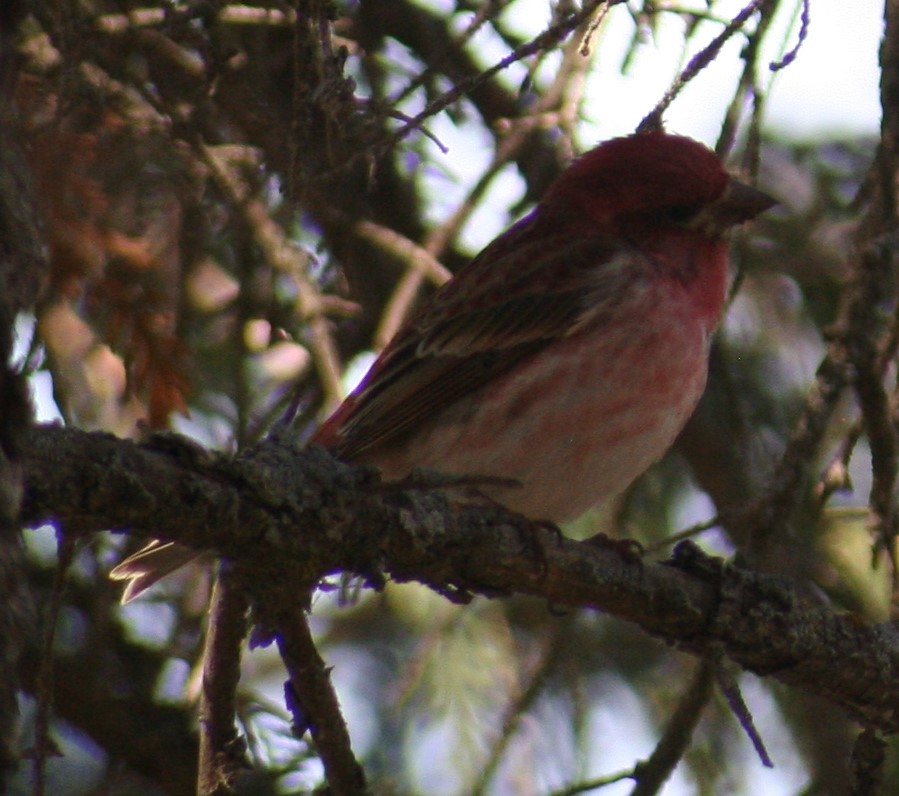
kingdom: Animalia
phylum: Chordata
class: Aves
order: Passeriformes
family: Fringillidae
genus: Haemorhous
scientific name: Haemorhous purpureus
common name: Purple finch
